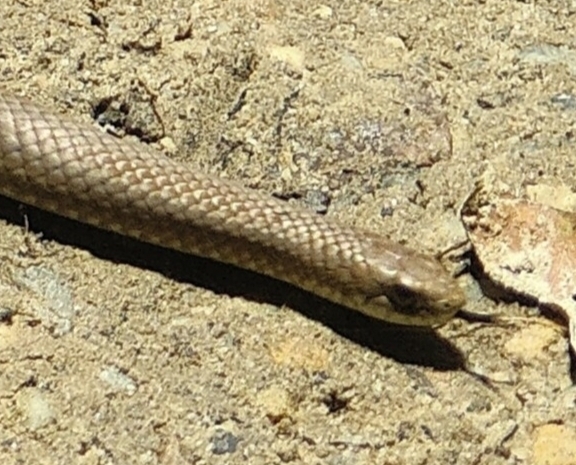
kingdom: Animalia
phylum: Chordata
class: Squamata
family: Pseudoxyrhophiidae
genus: Duberria
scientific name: Duberria lutrix
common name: Common slug eater
